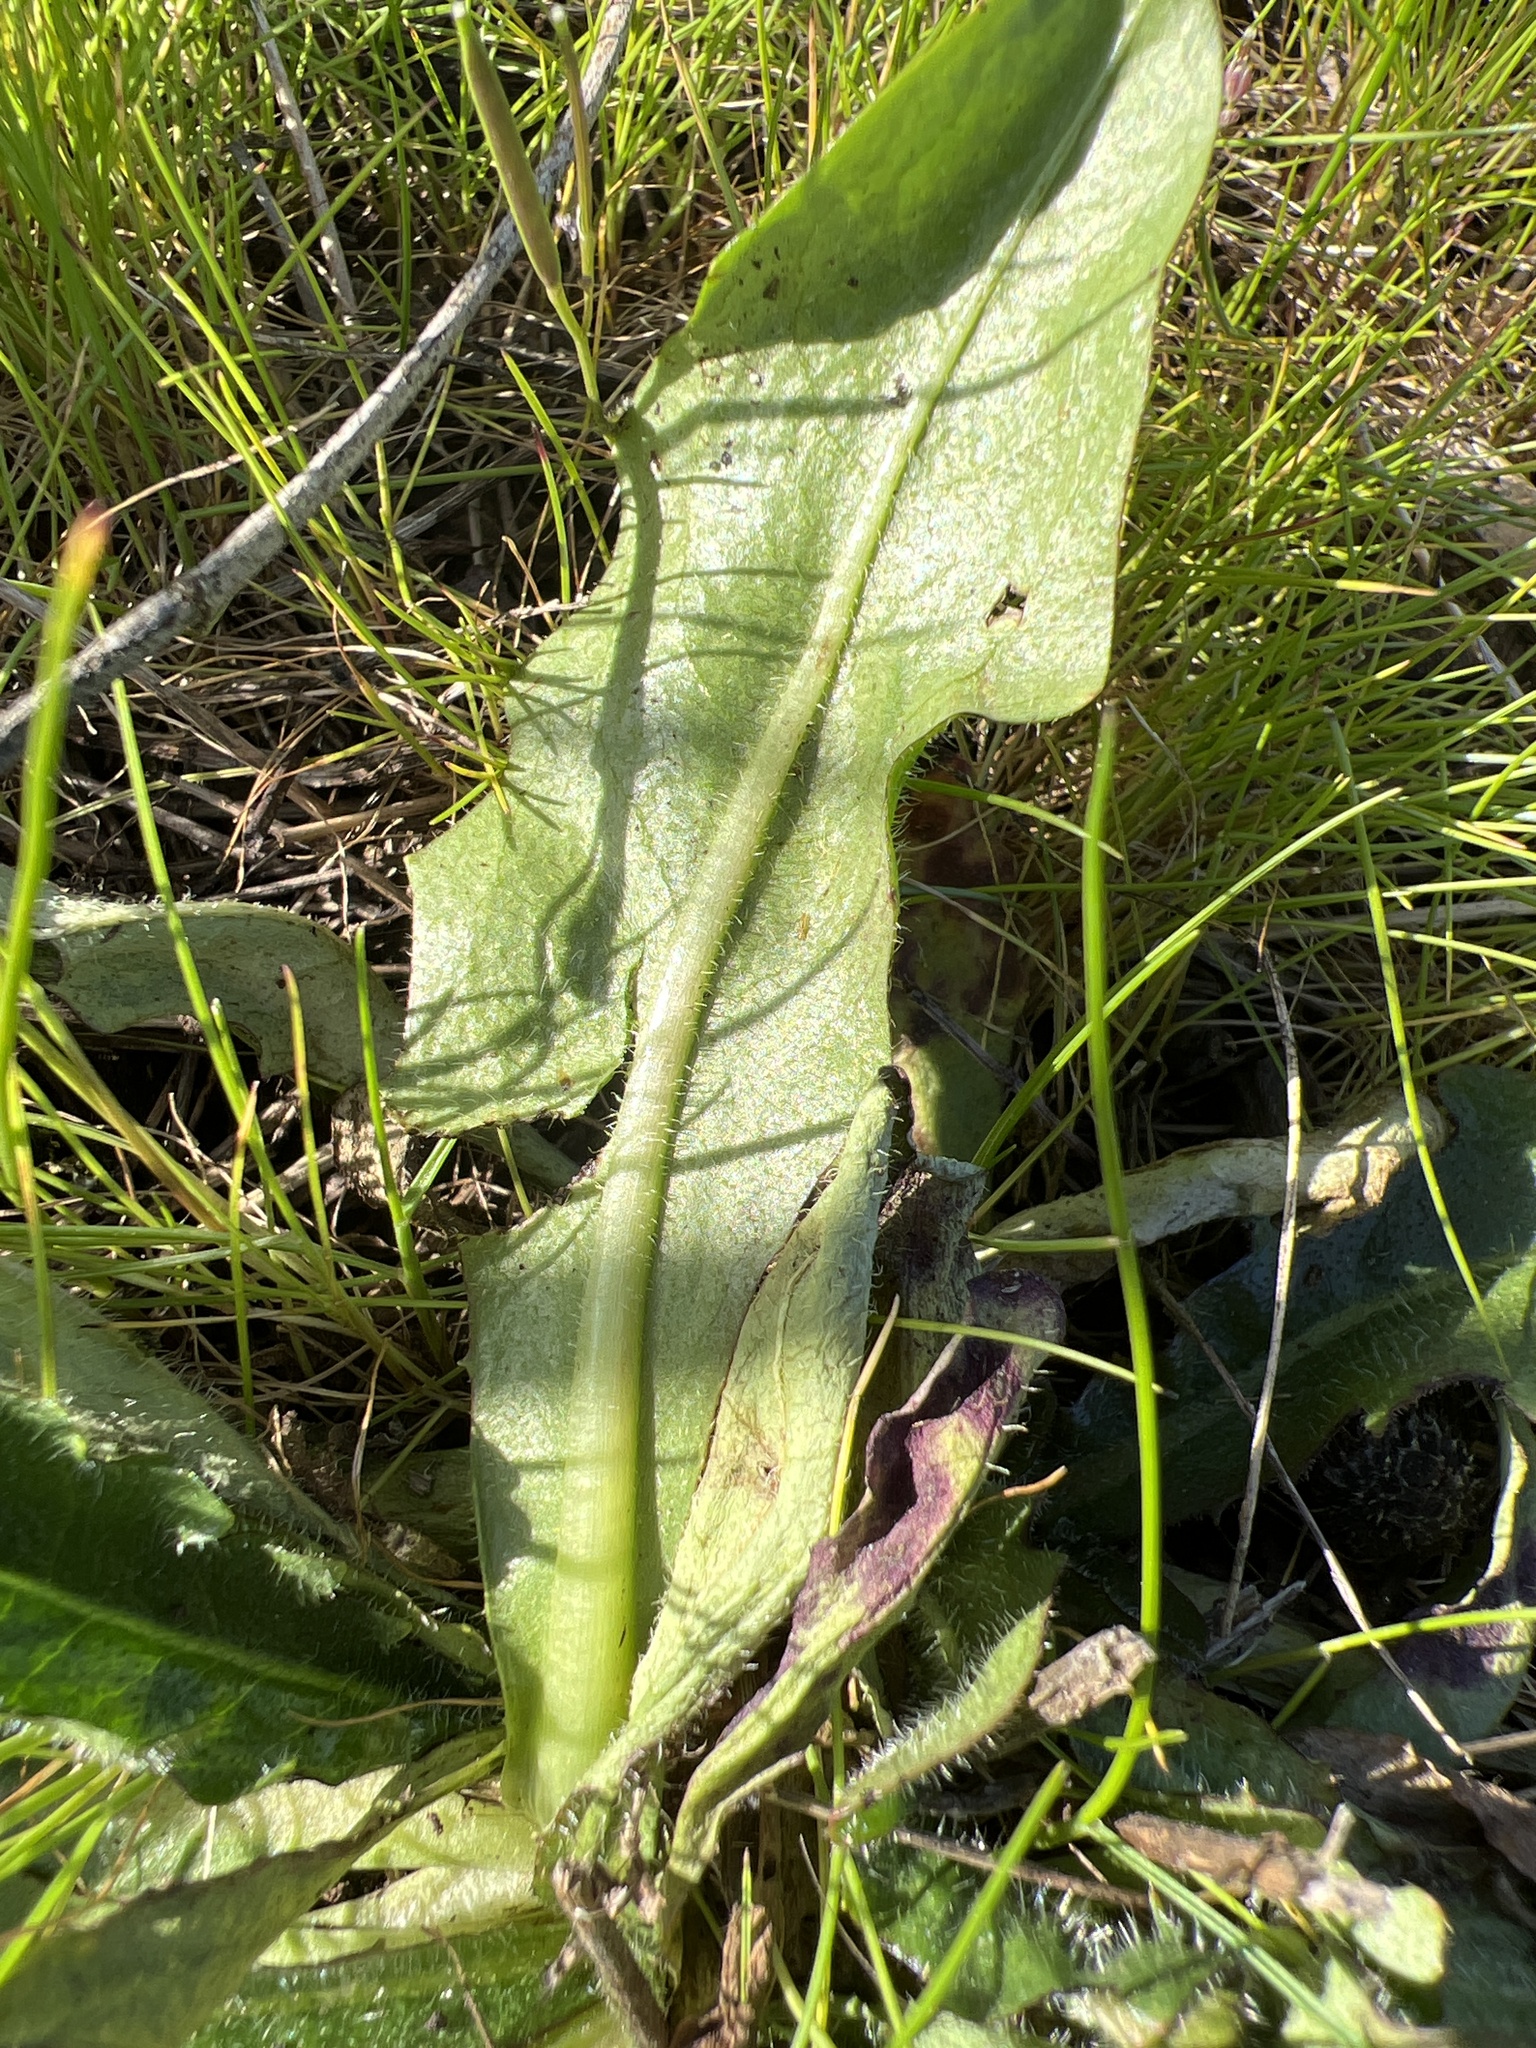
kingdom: Plantae
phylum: Tracheophyta
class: Magnoliopsida
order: Asterales
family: Asteraceae
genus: Hypochaeris
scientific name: Hypochaeris radicata
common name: Flatweed
